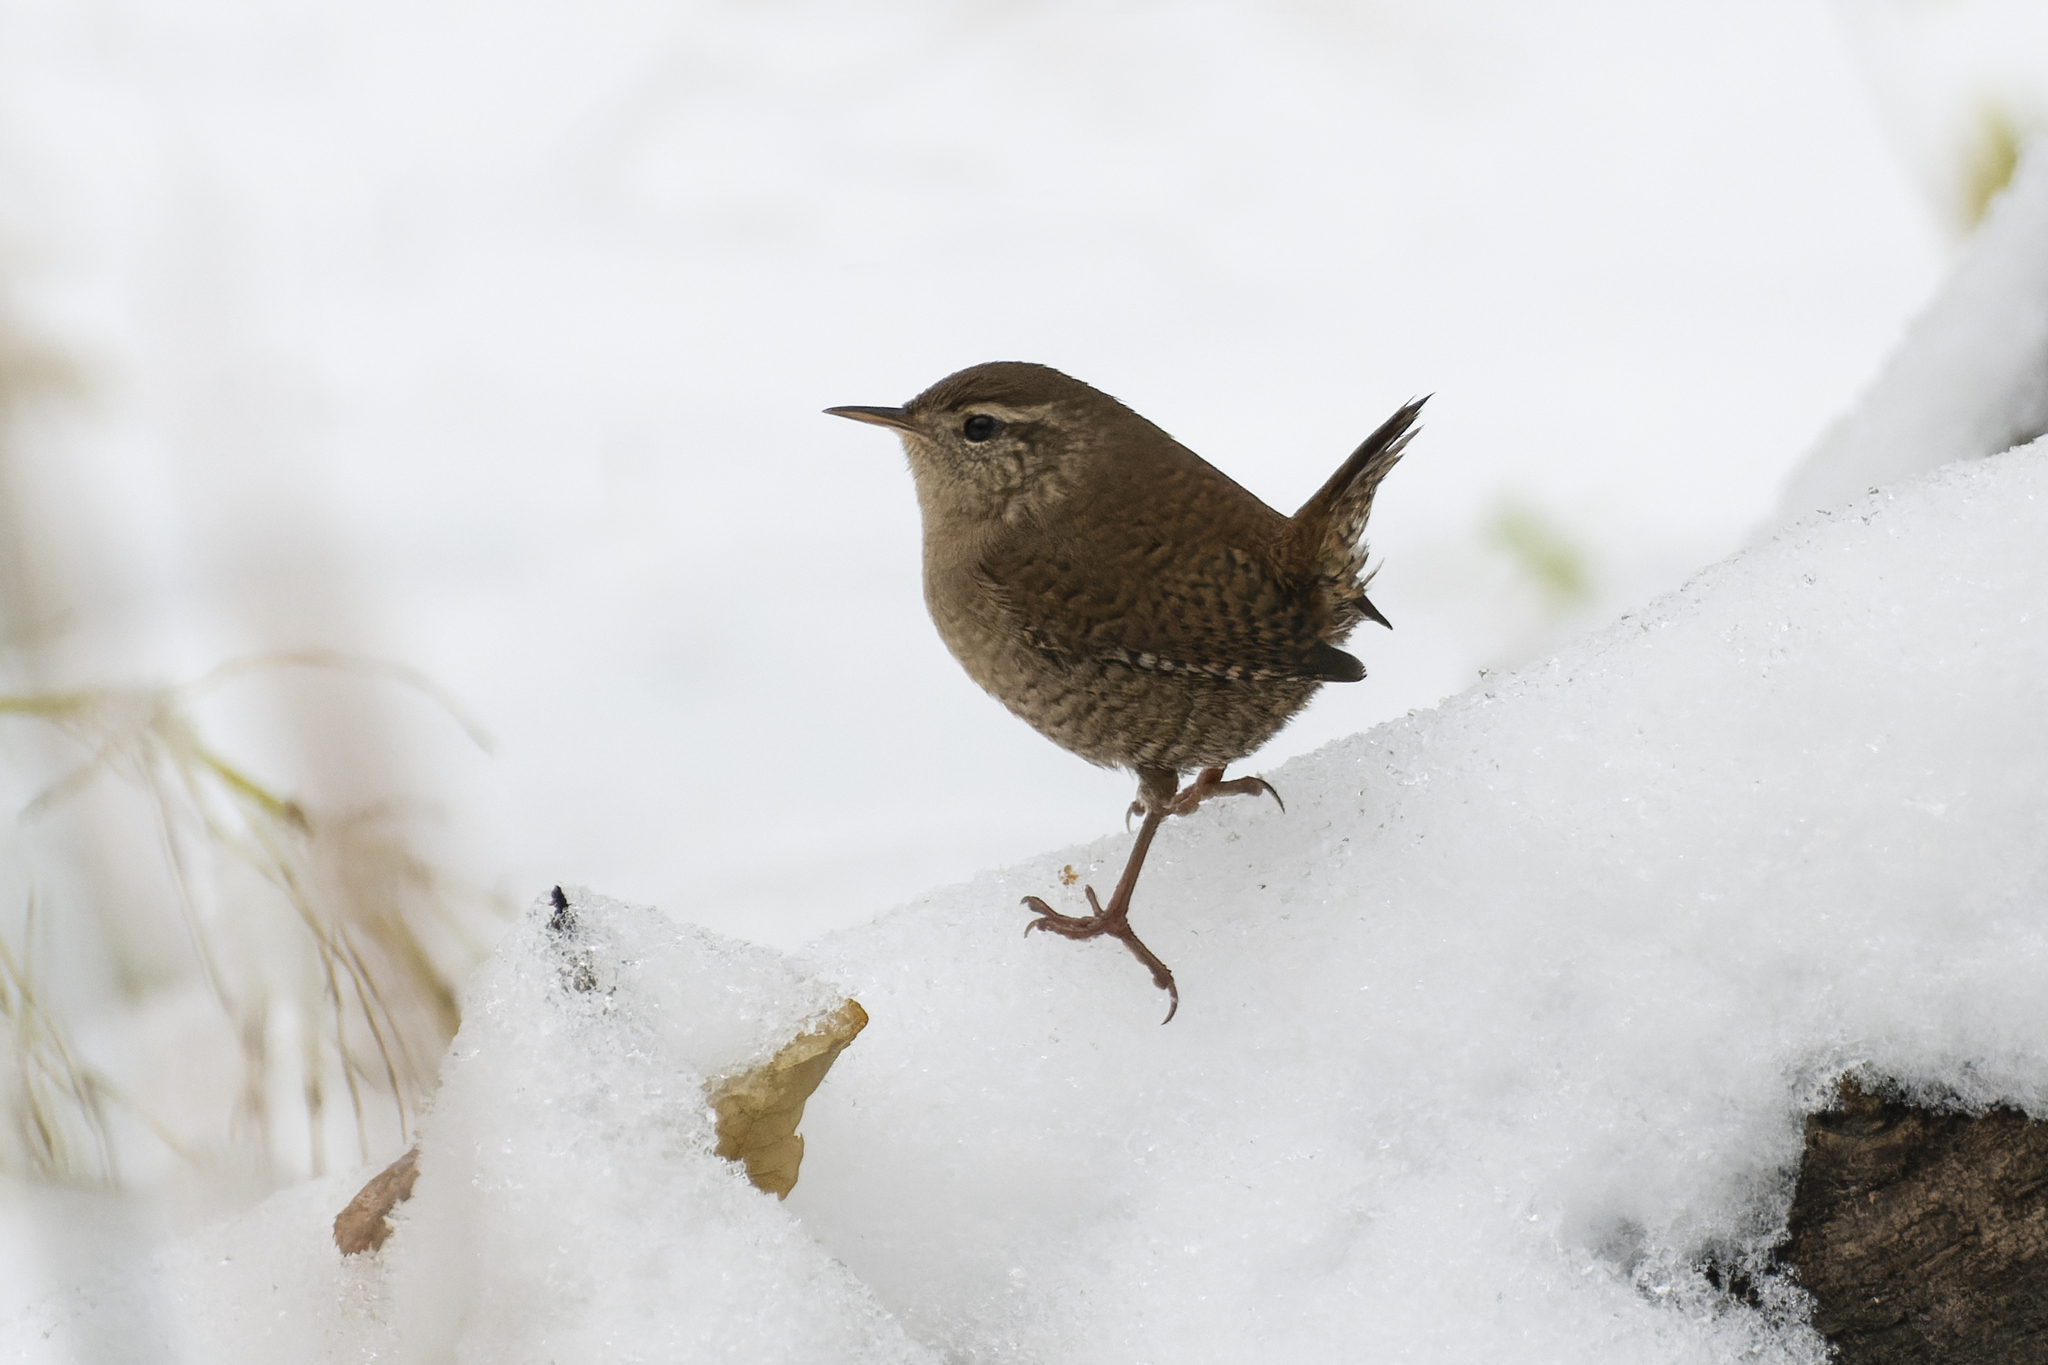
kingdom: Animalia
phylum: Chordata
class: Aves
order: Passeriformes
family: Troglodytidae
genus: Troglodytes
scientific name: Troglodytes troglodytes
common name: Eurasian wren
